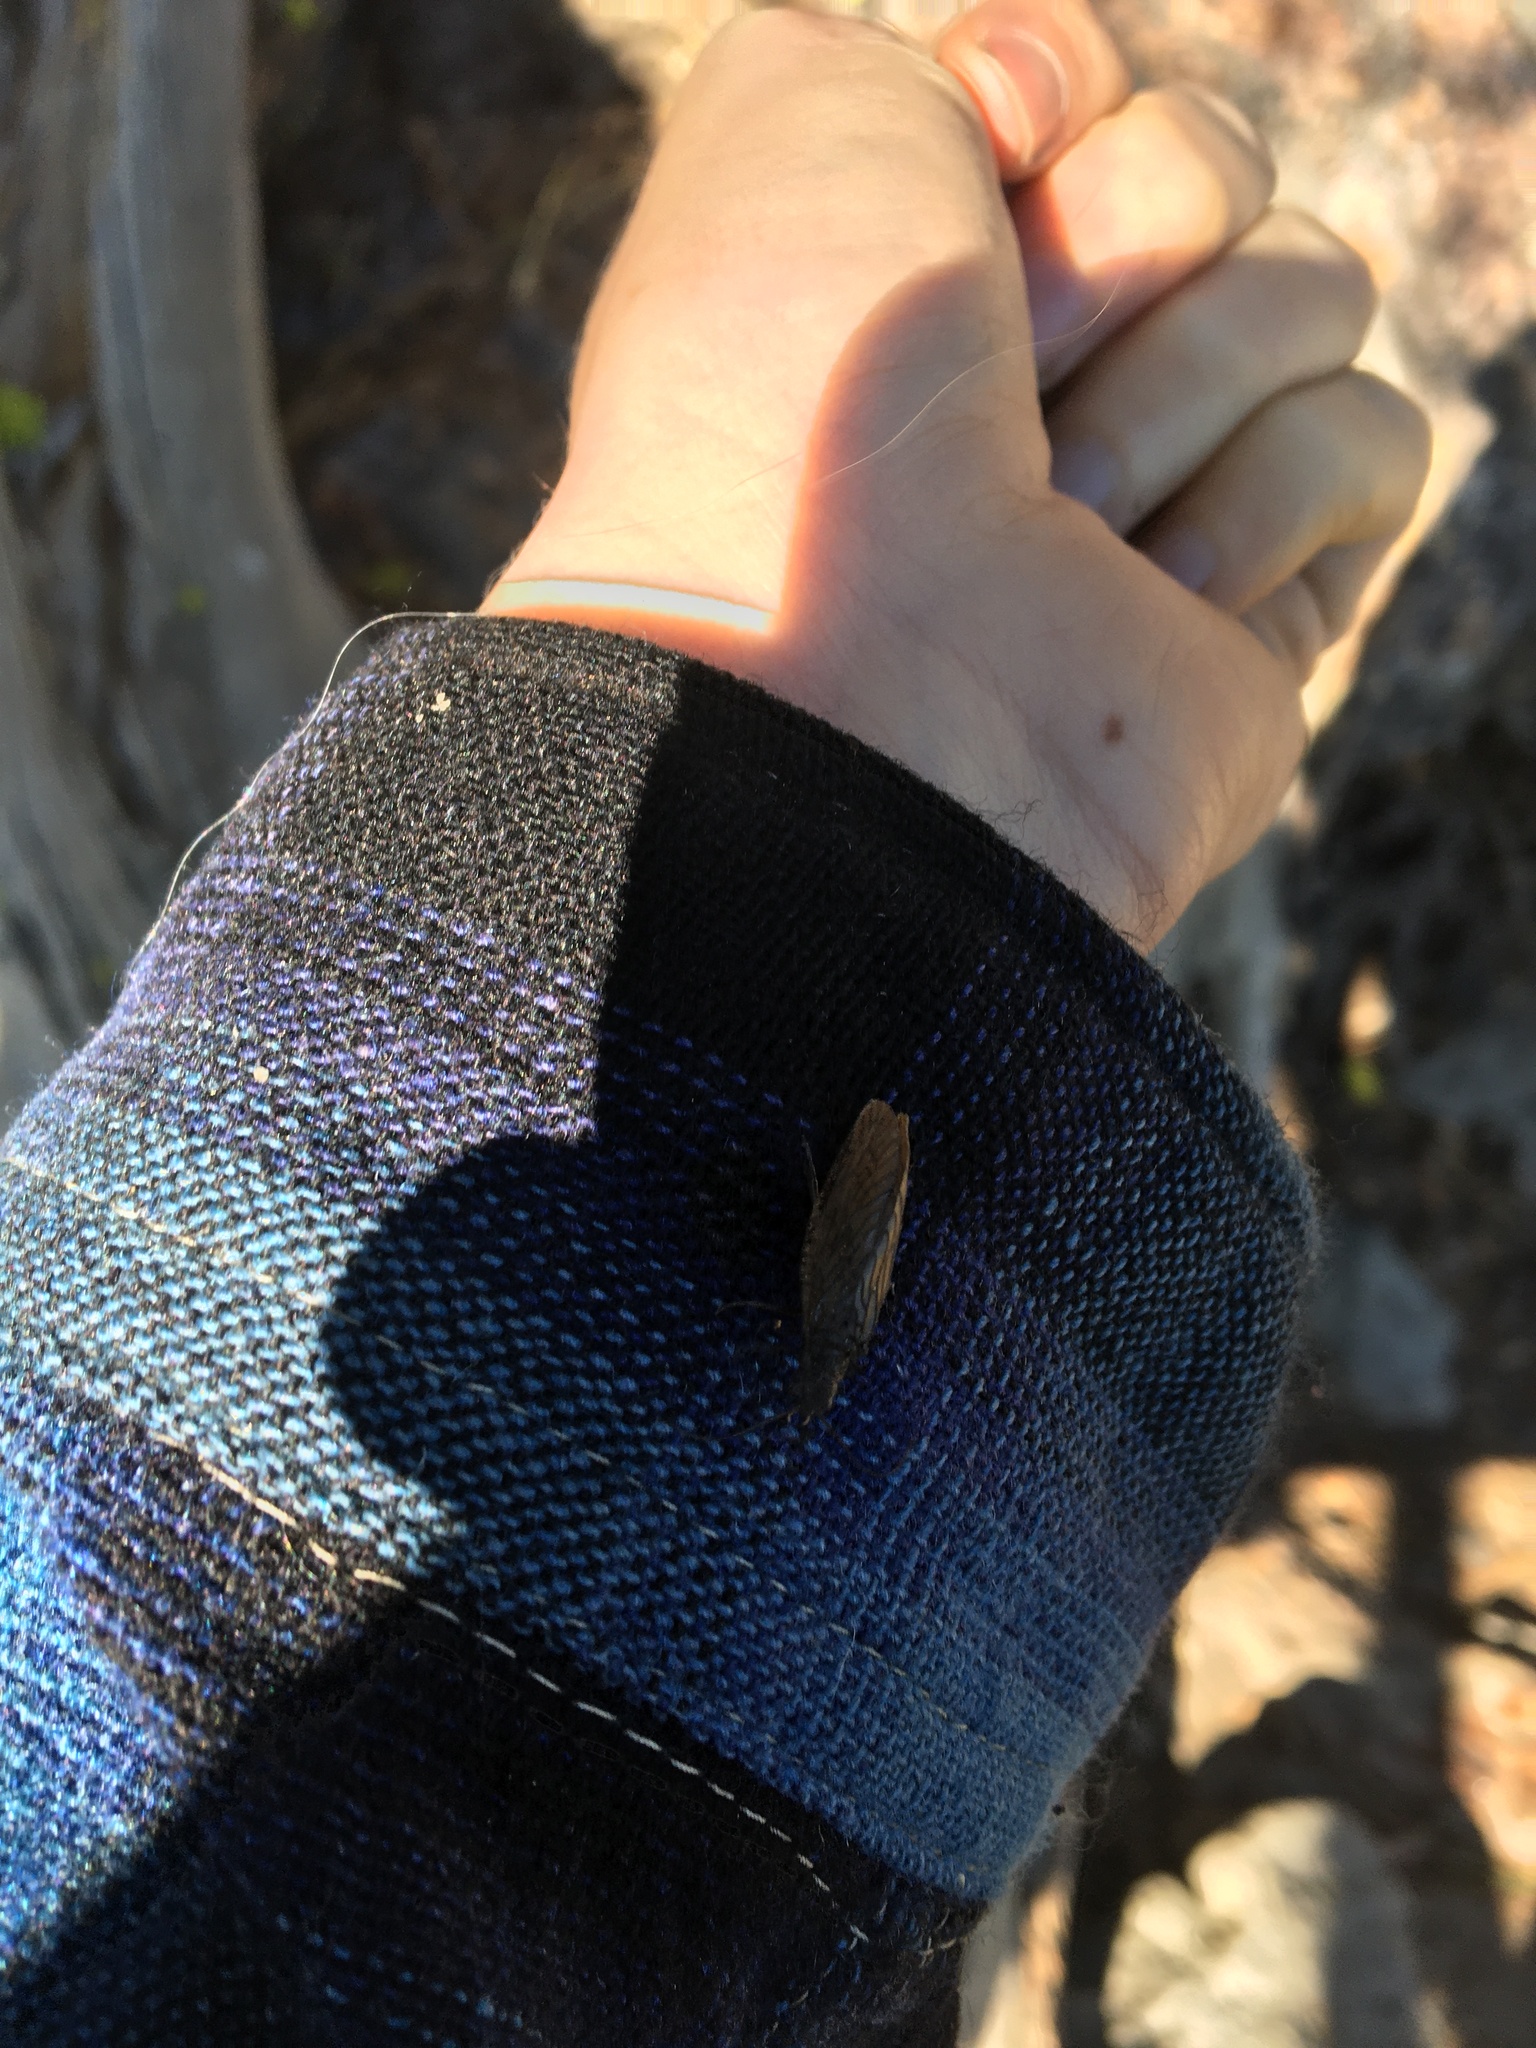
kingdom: Animalia
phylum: Arthropoda
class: Insecta
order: Megaloptera
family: Sialidae
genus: Sialis
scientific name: Sialis
